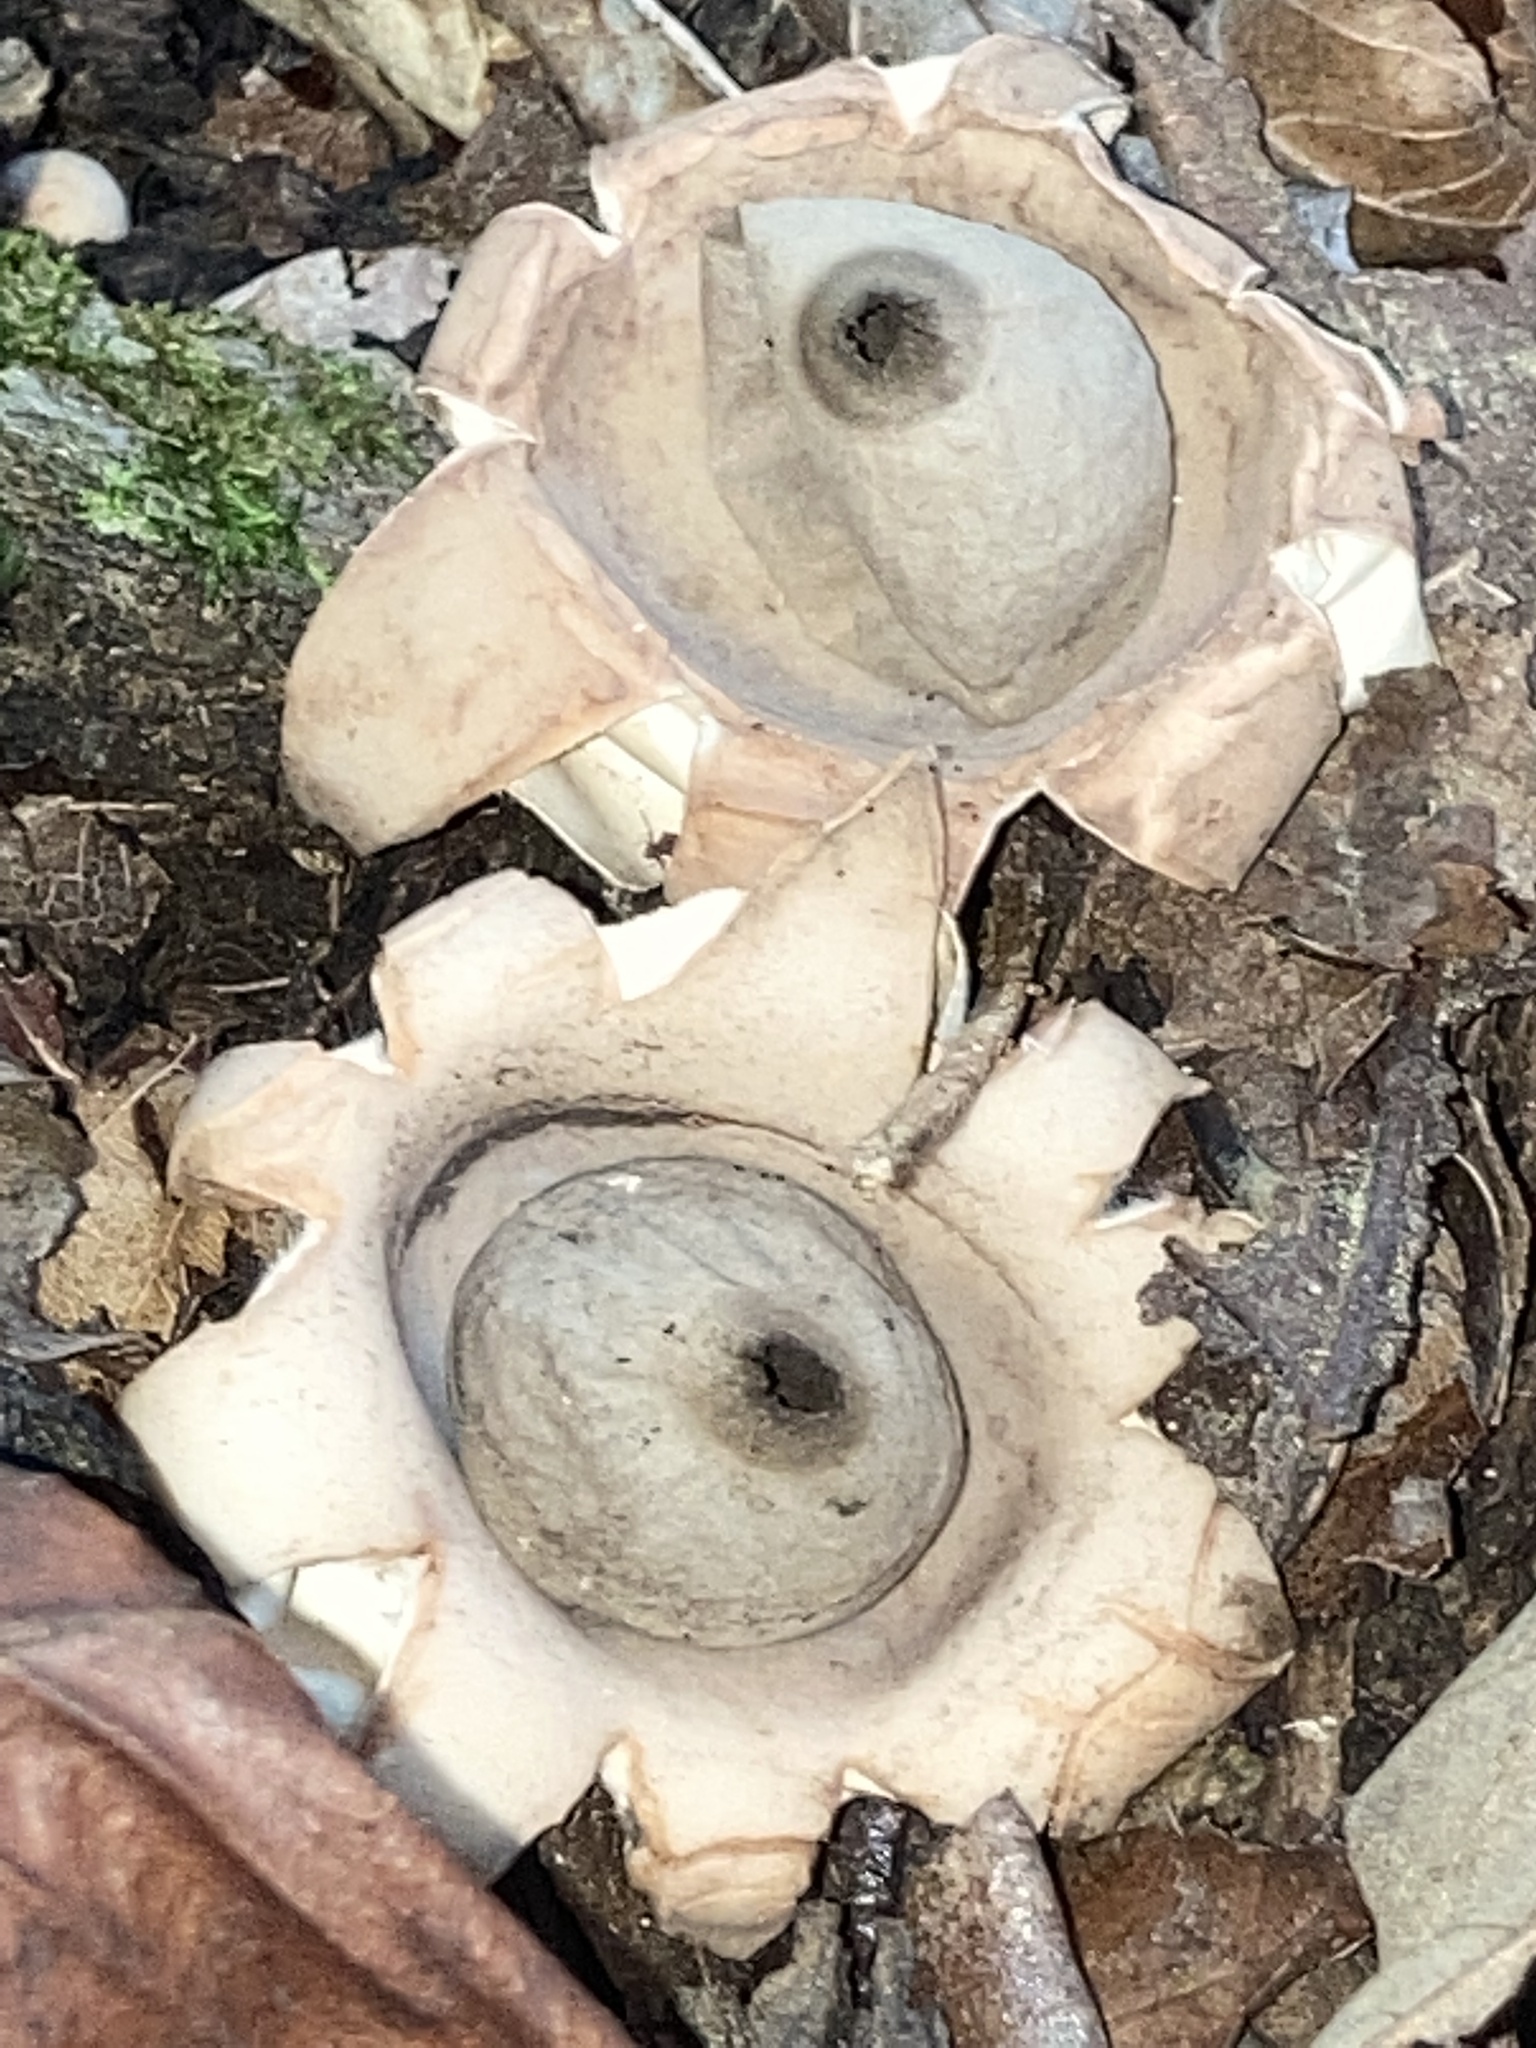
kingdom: Fungi
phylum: Basidiomycota
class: Agaricomycetes
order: Geastrales
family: Geastraceae
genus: Geastrum
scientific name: Geastrum saccatum
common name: Rounded earthstar
